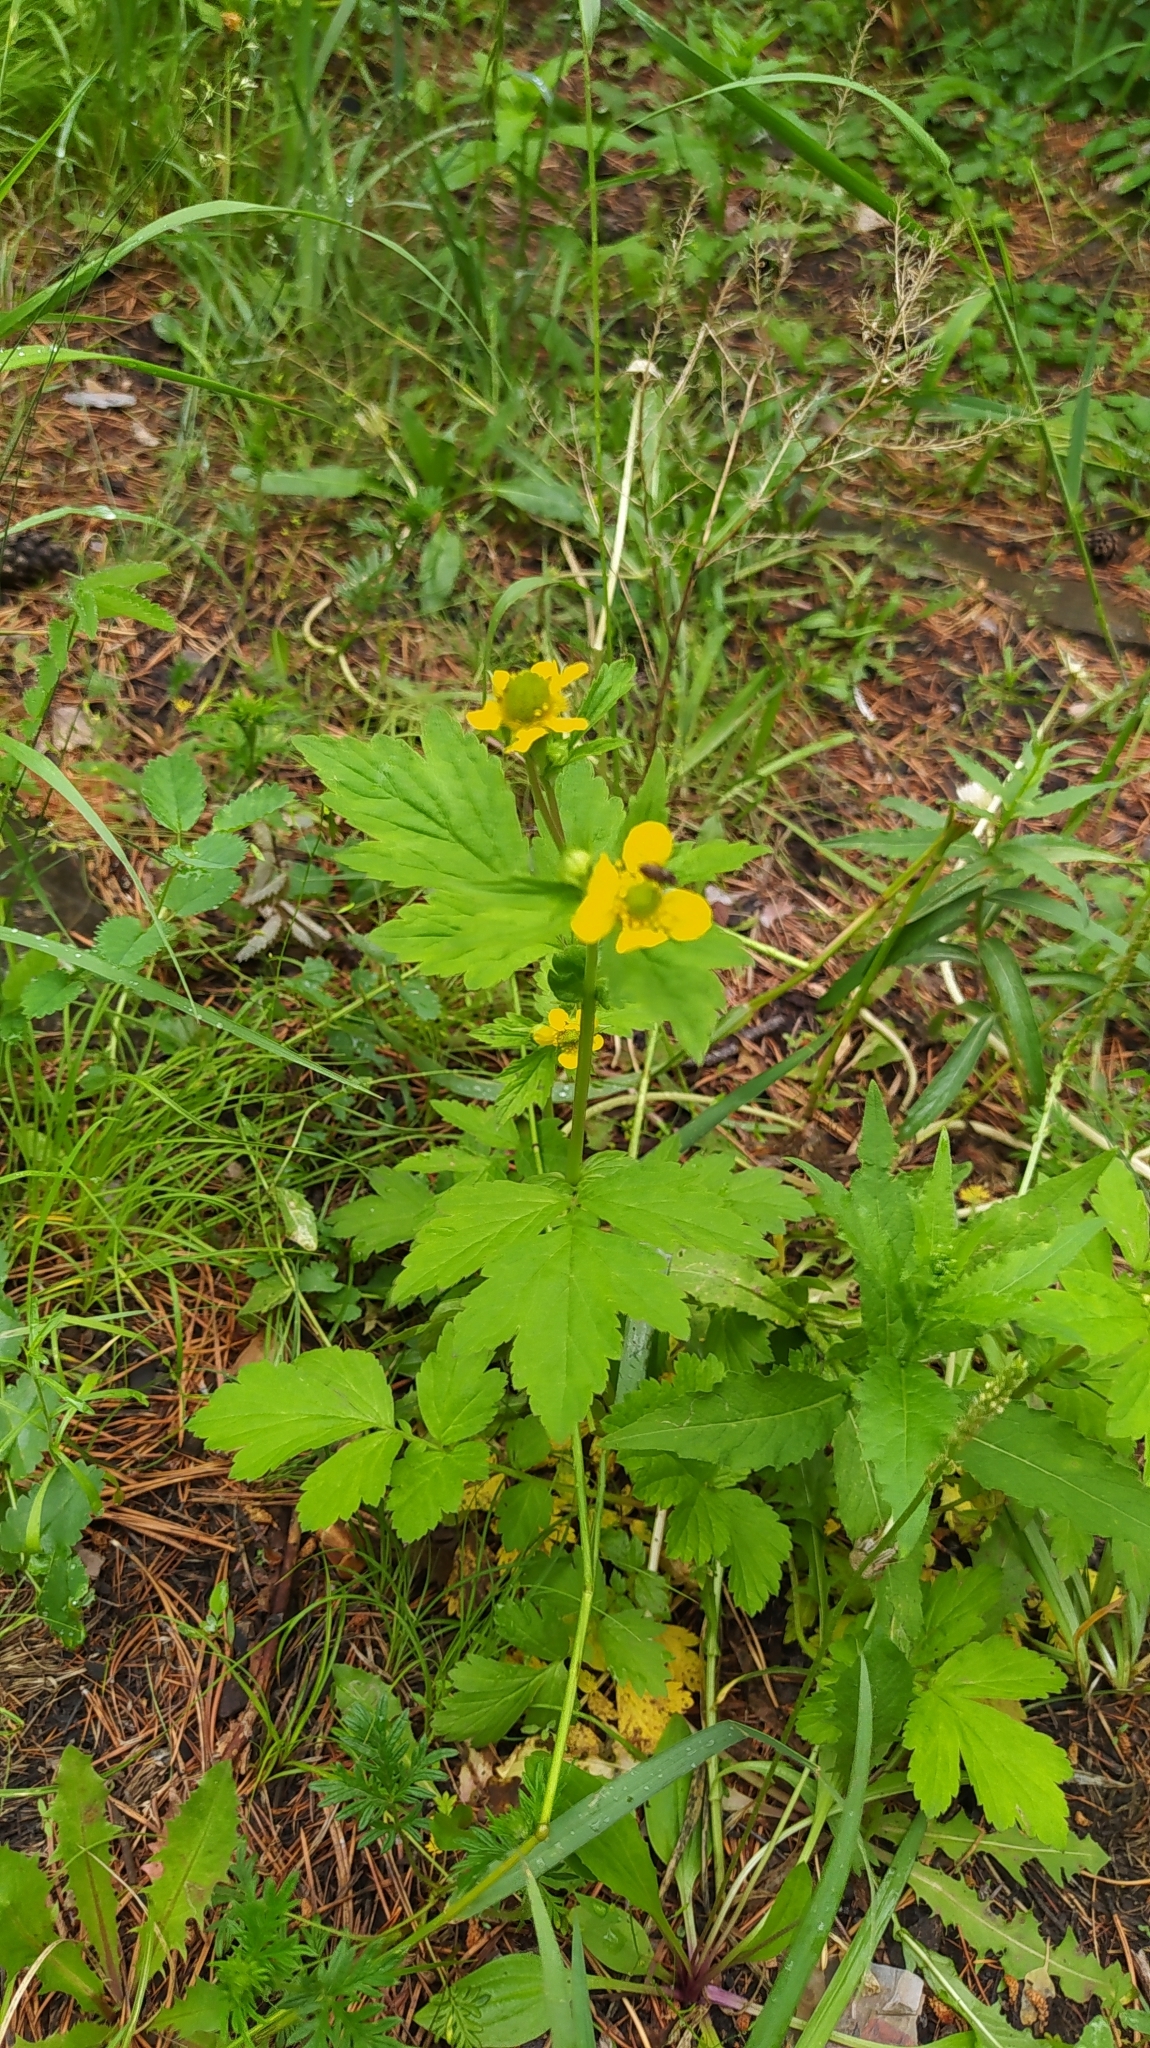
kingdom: Plantae
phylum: Tracheophyta
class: Magnoliopsida
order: Rosales
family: Rosaceae
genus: Geum
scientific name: Geum aleppicum
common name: Yellow avens
